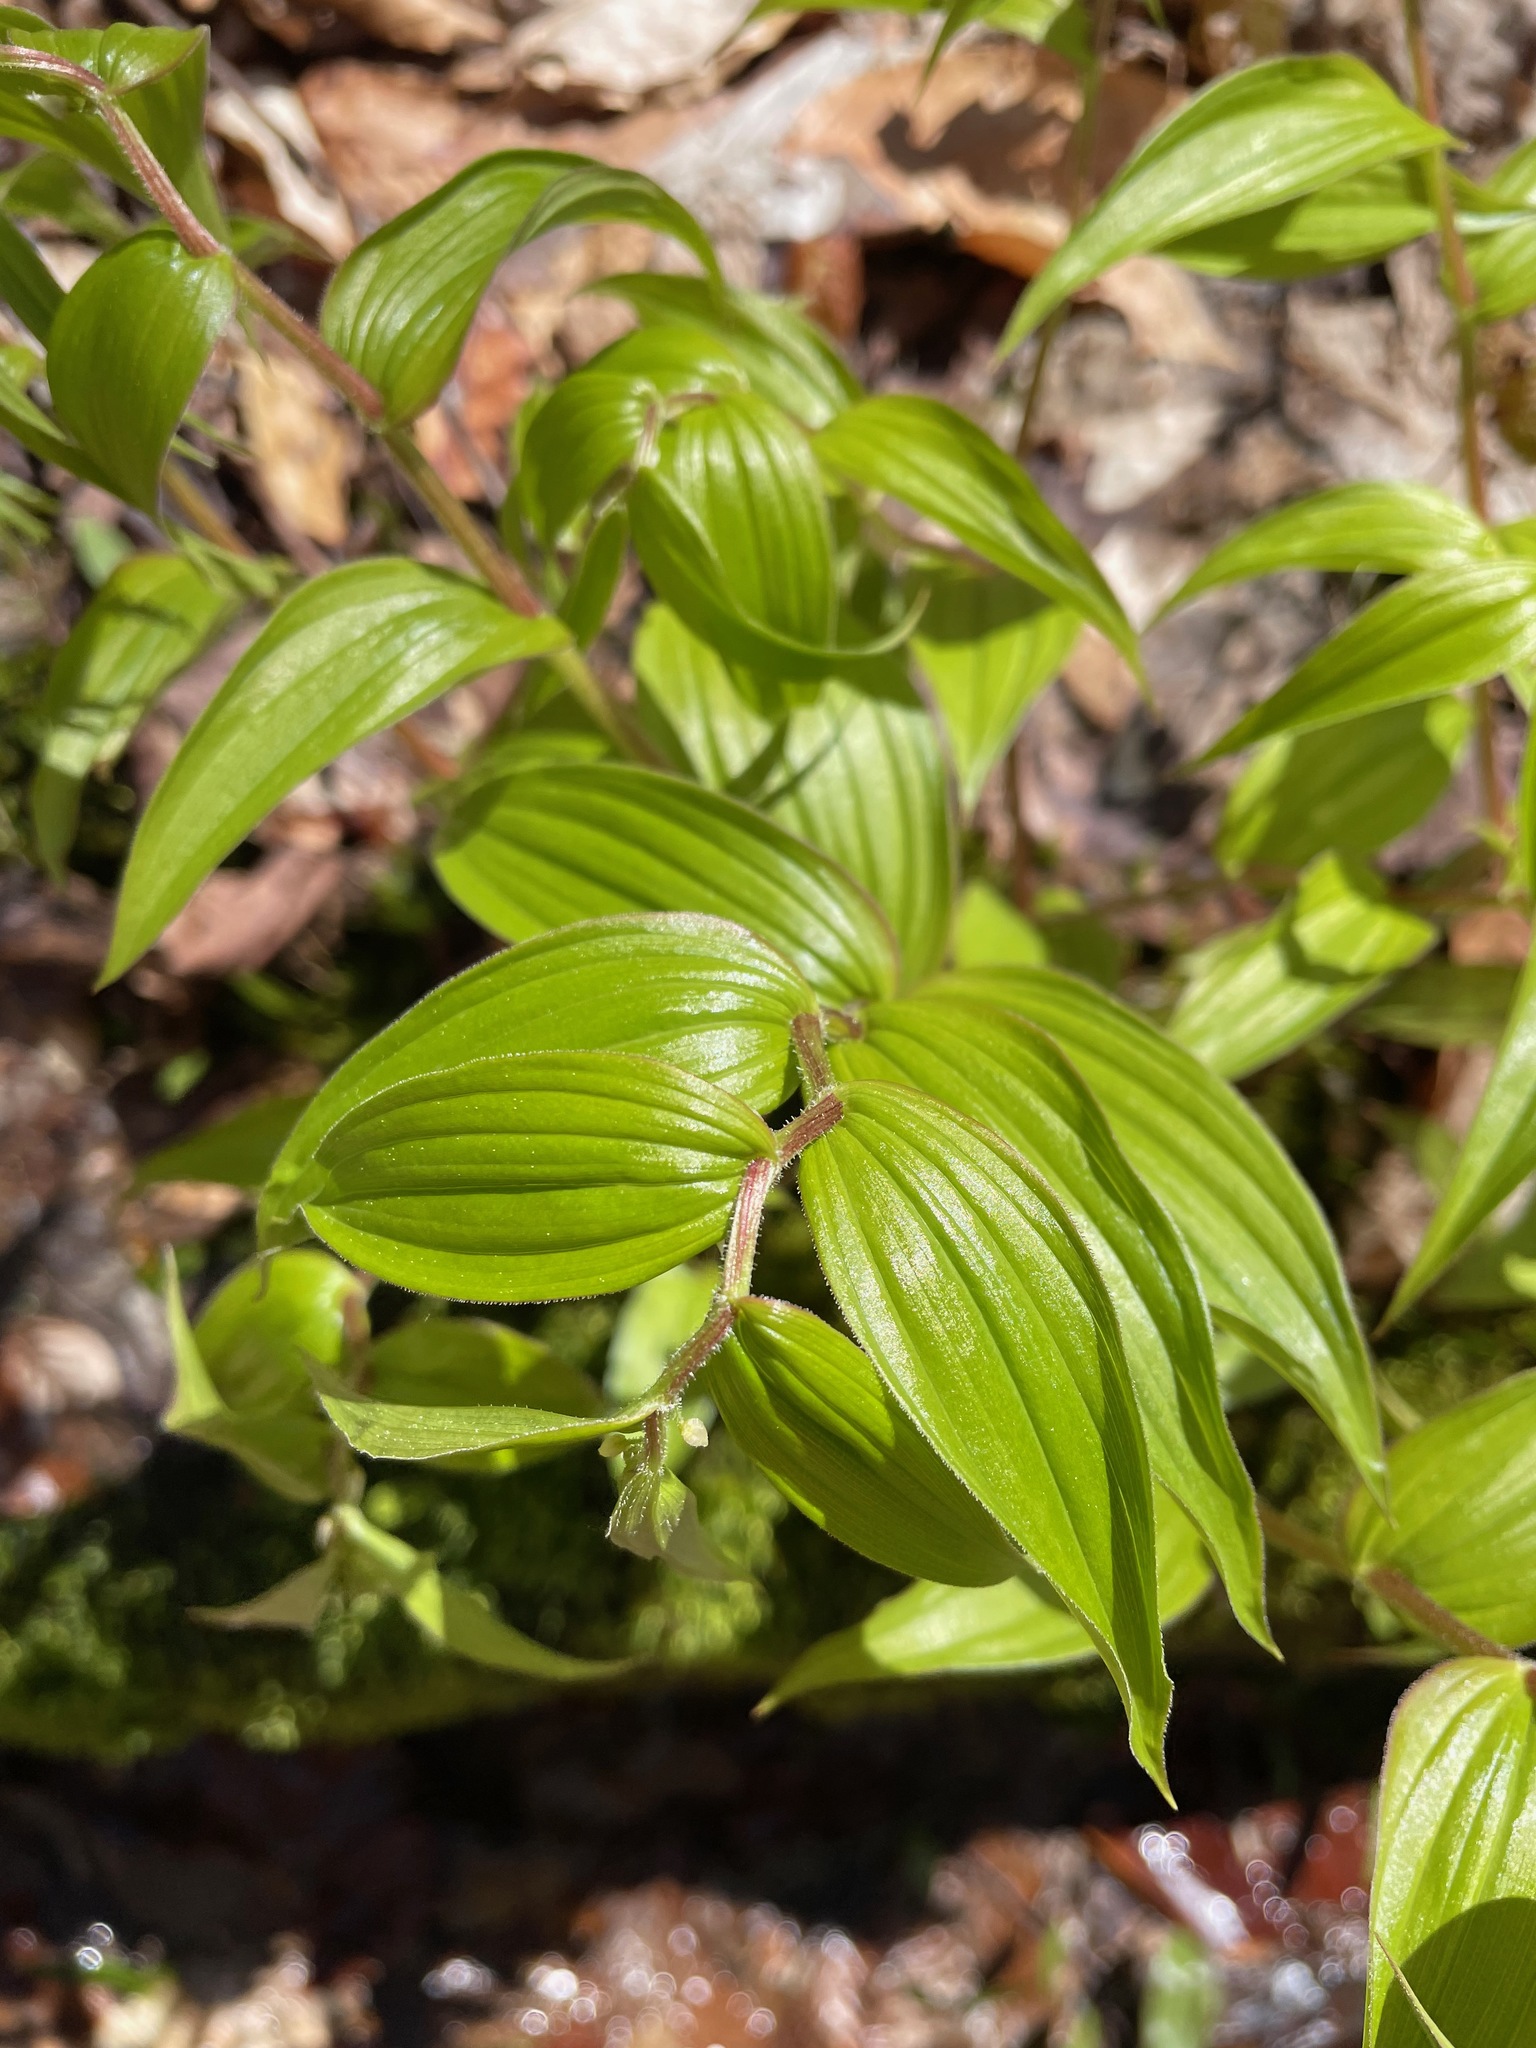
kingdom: Plantae
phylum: Tracheophyta
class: Liliopsida
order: Liliales
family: Liliaceae
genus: Streptopus
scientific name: Streptopus lanceolatus
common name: Rose mandarin
